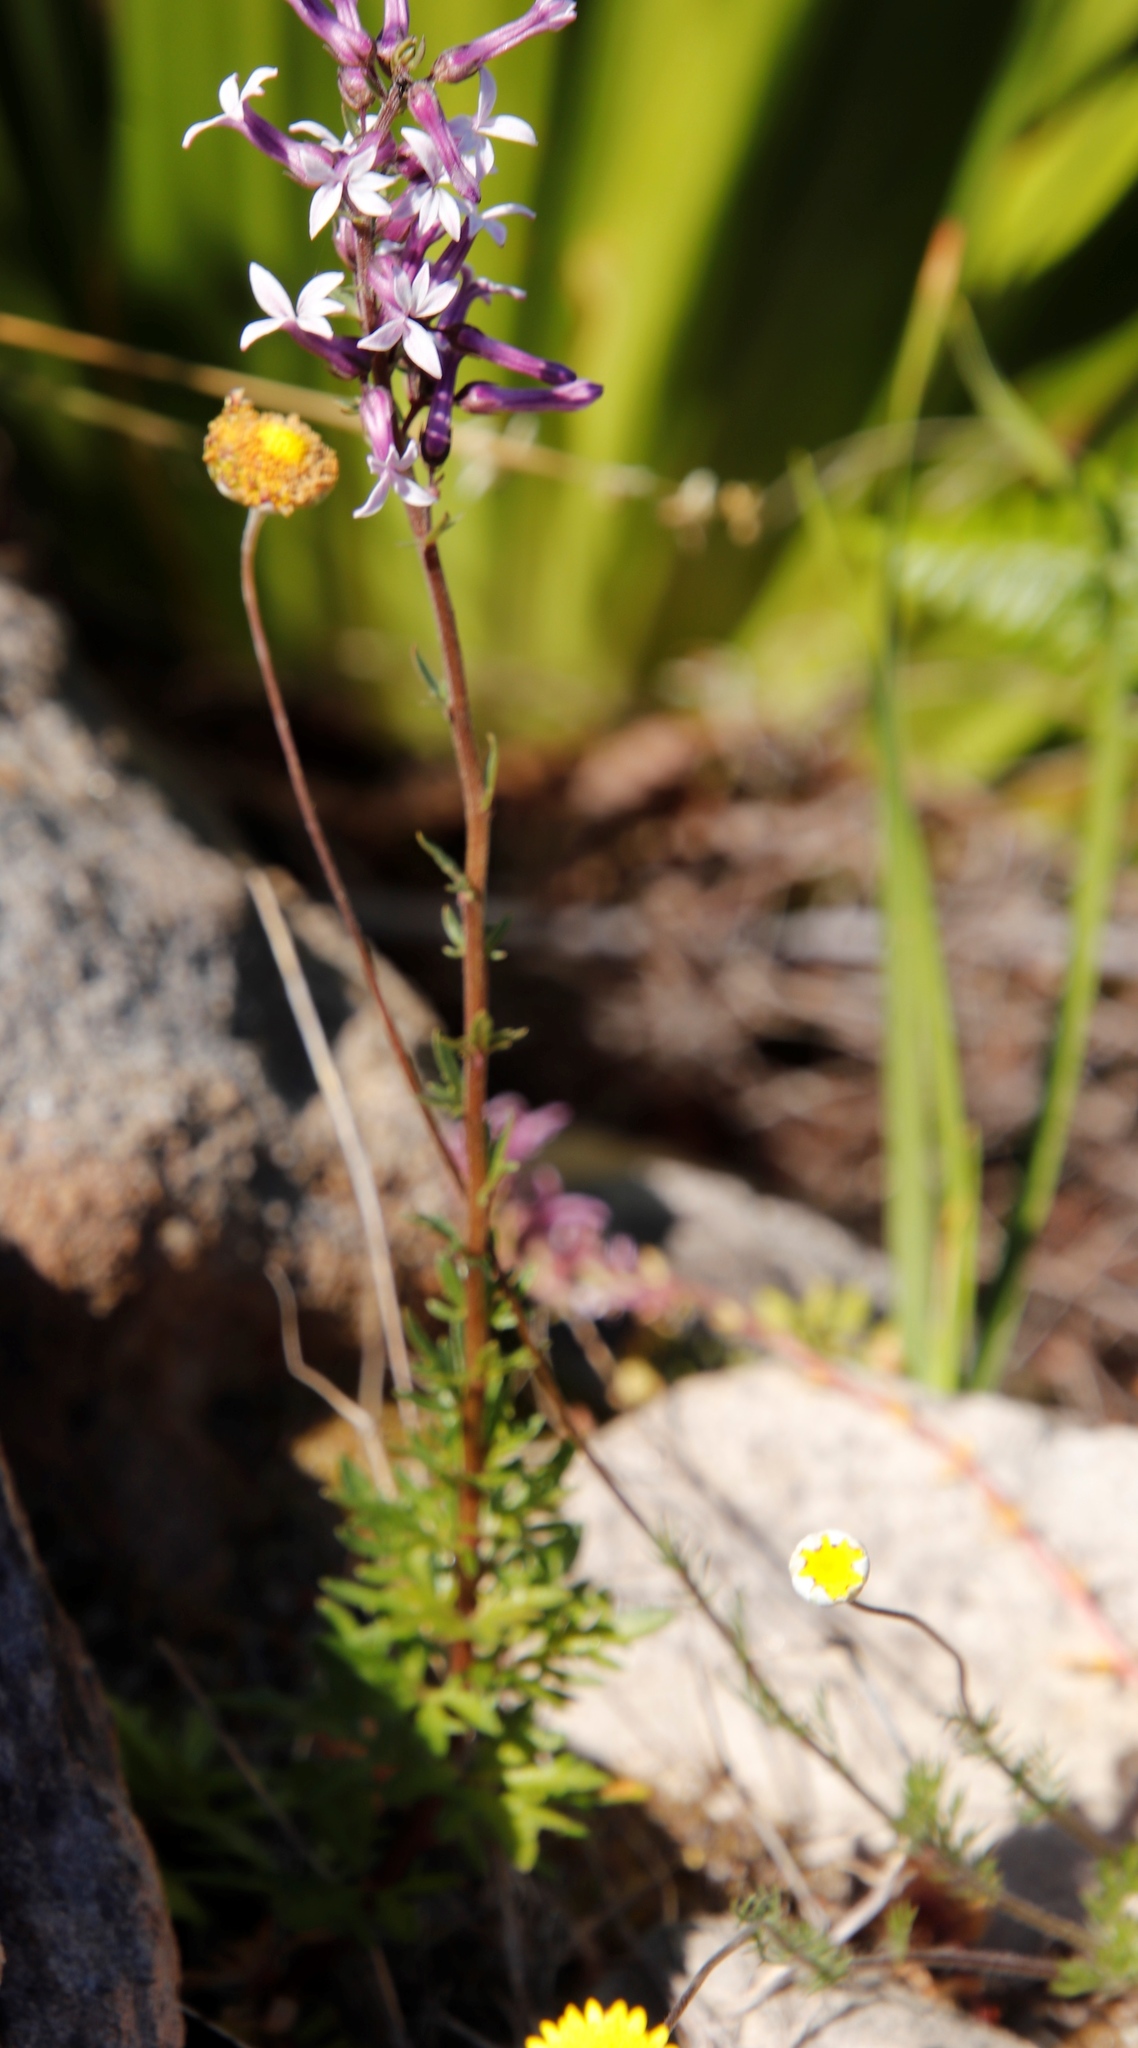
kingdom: Plantae
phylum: Tracheophyta
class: Magnoliopsida
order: Asterales
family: Campanulaceae
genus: Cyphia
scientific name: Cyphia bulbosa
